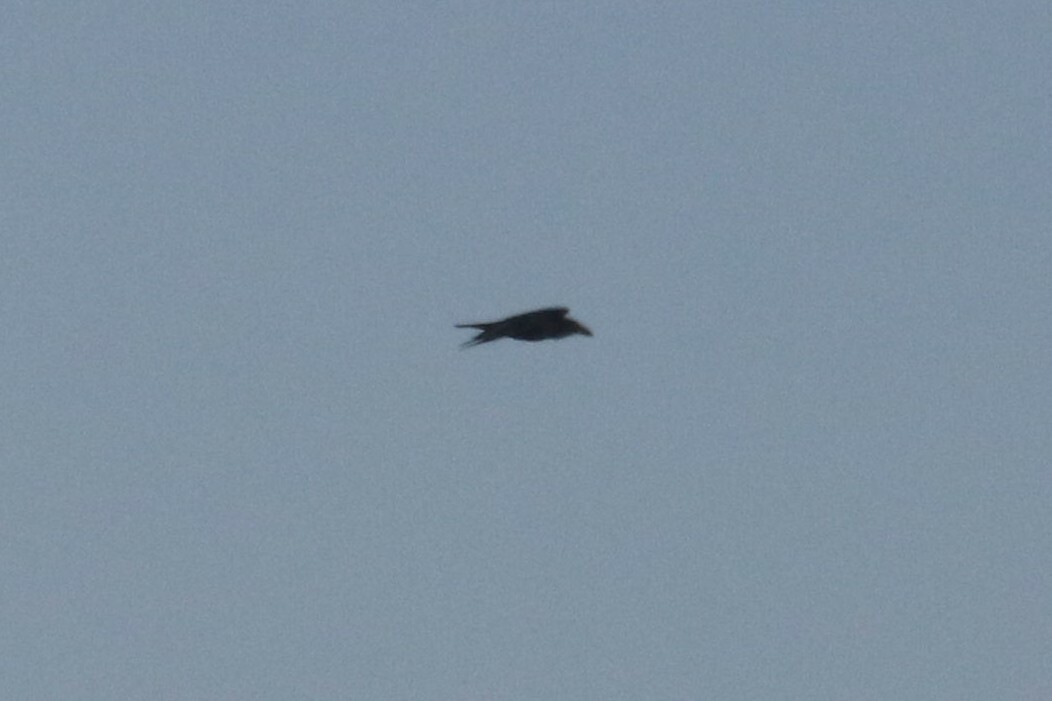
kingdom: Animalia
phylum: Chordata
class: Aves
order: Passeriformes
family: Corvidae
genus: Corvus
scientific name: Corvus corax
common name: Common raven
